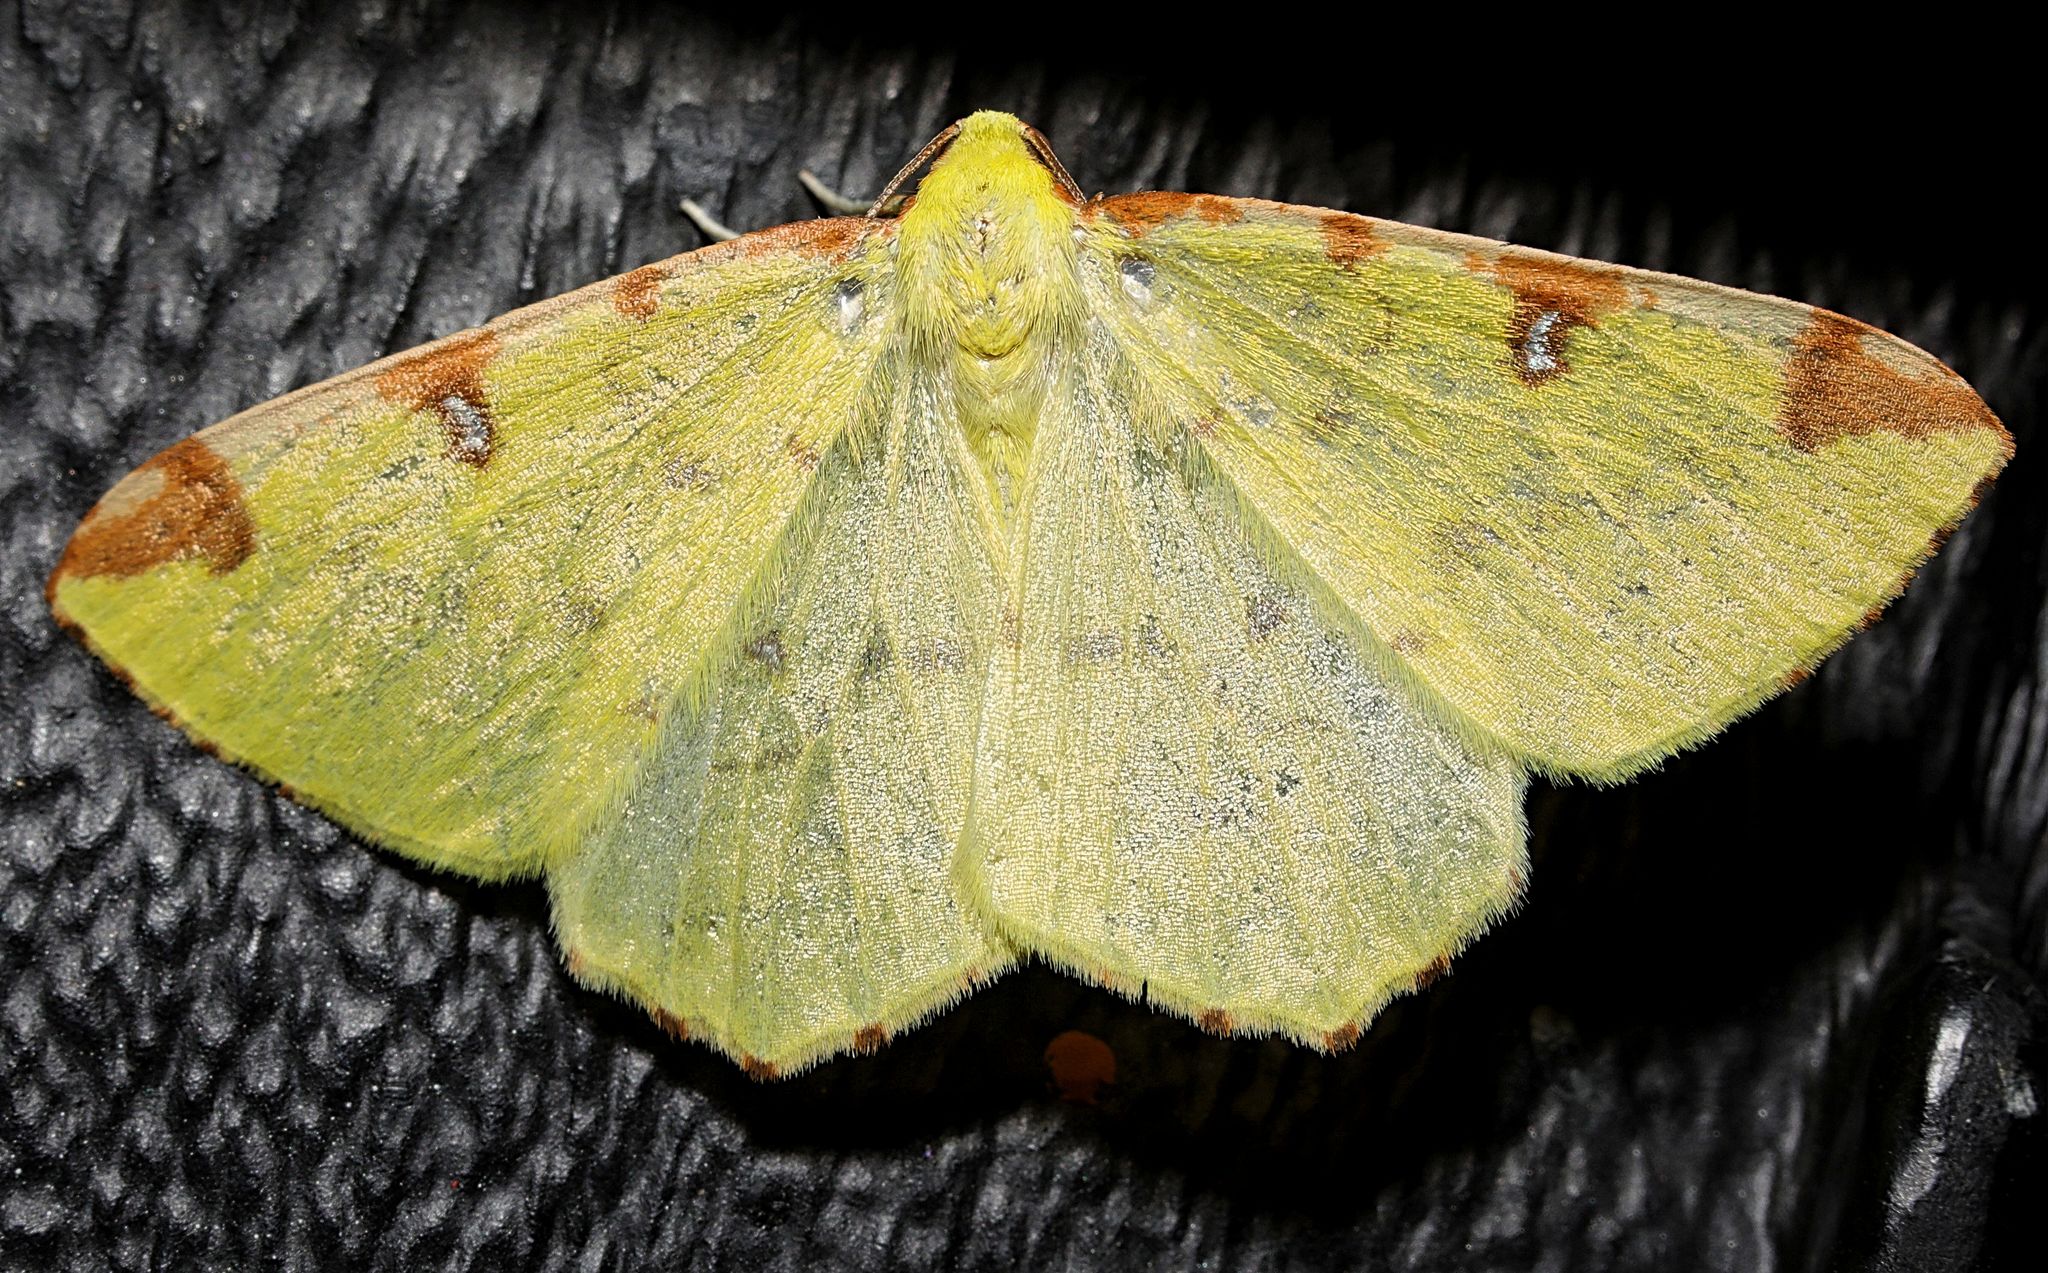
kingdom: Animalia
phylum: Arthropoda
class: Insecta
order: Lepidoptera
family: Geometridae
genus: Opisthograptis
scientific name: Opisthograptis luteolata
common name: Brimstone moth
